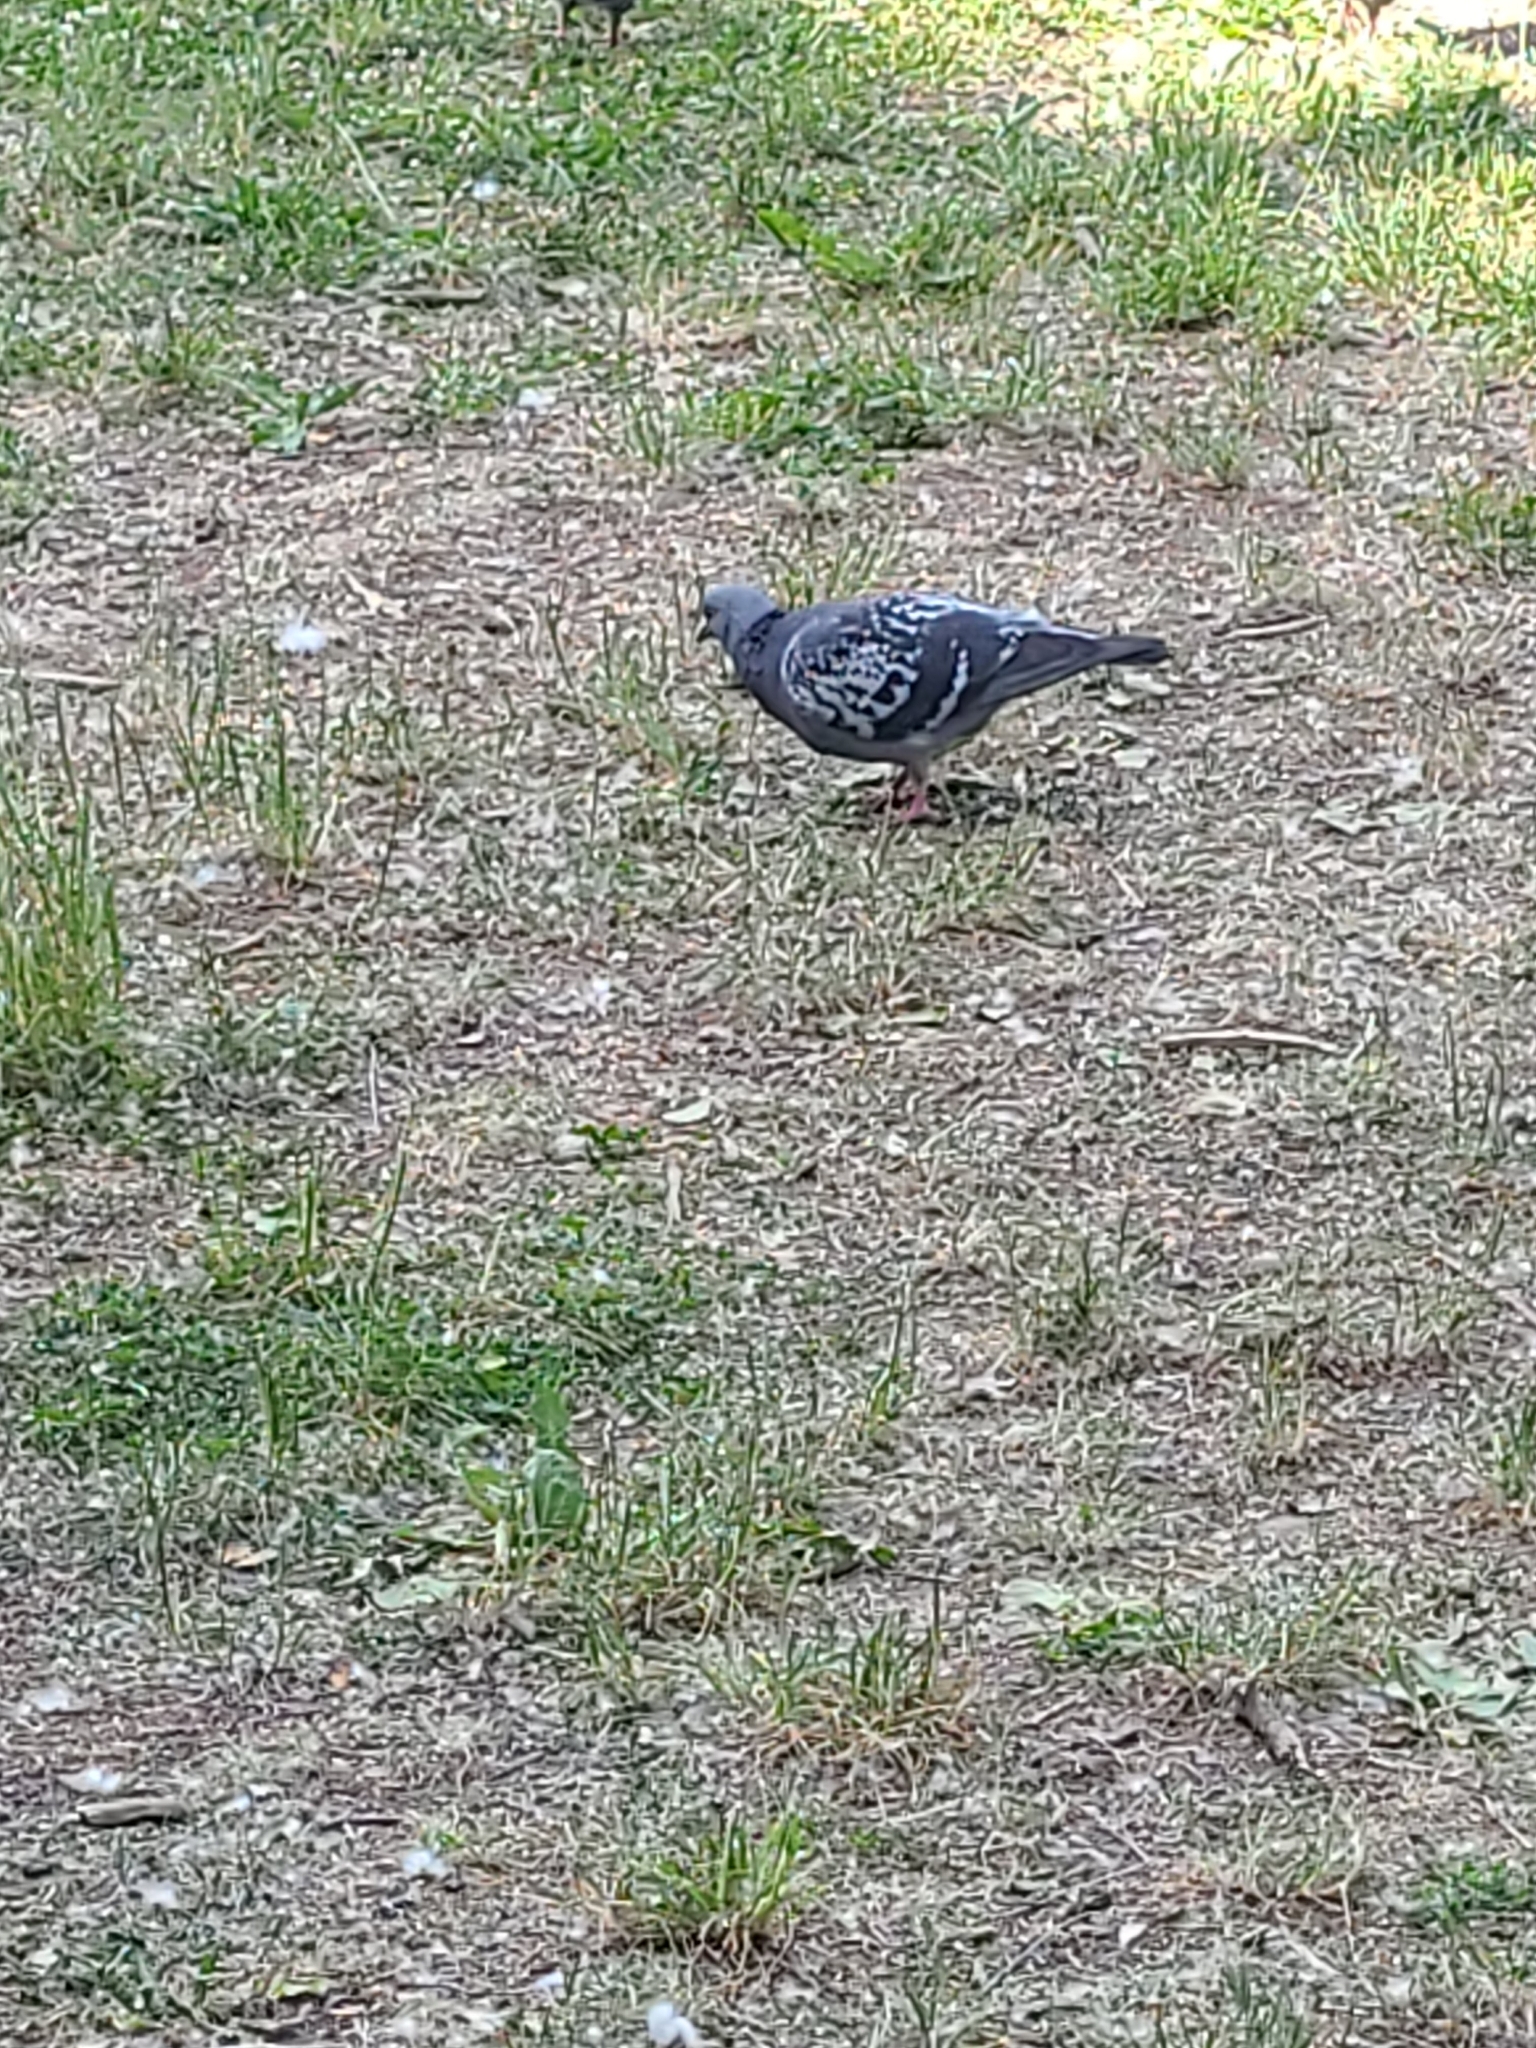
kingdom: Animalia
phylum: Chordata
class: Aves
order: Columbiformes
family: Columbidae
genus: Columba
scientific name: Columba livia
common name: Rock pigeon
